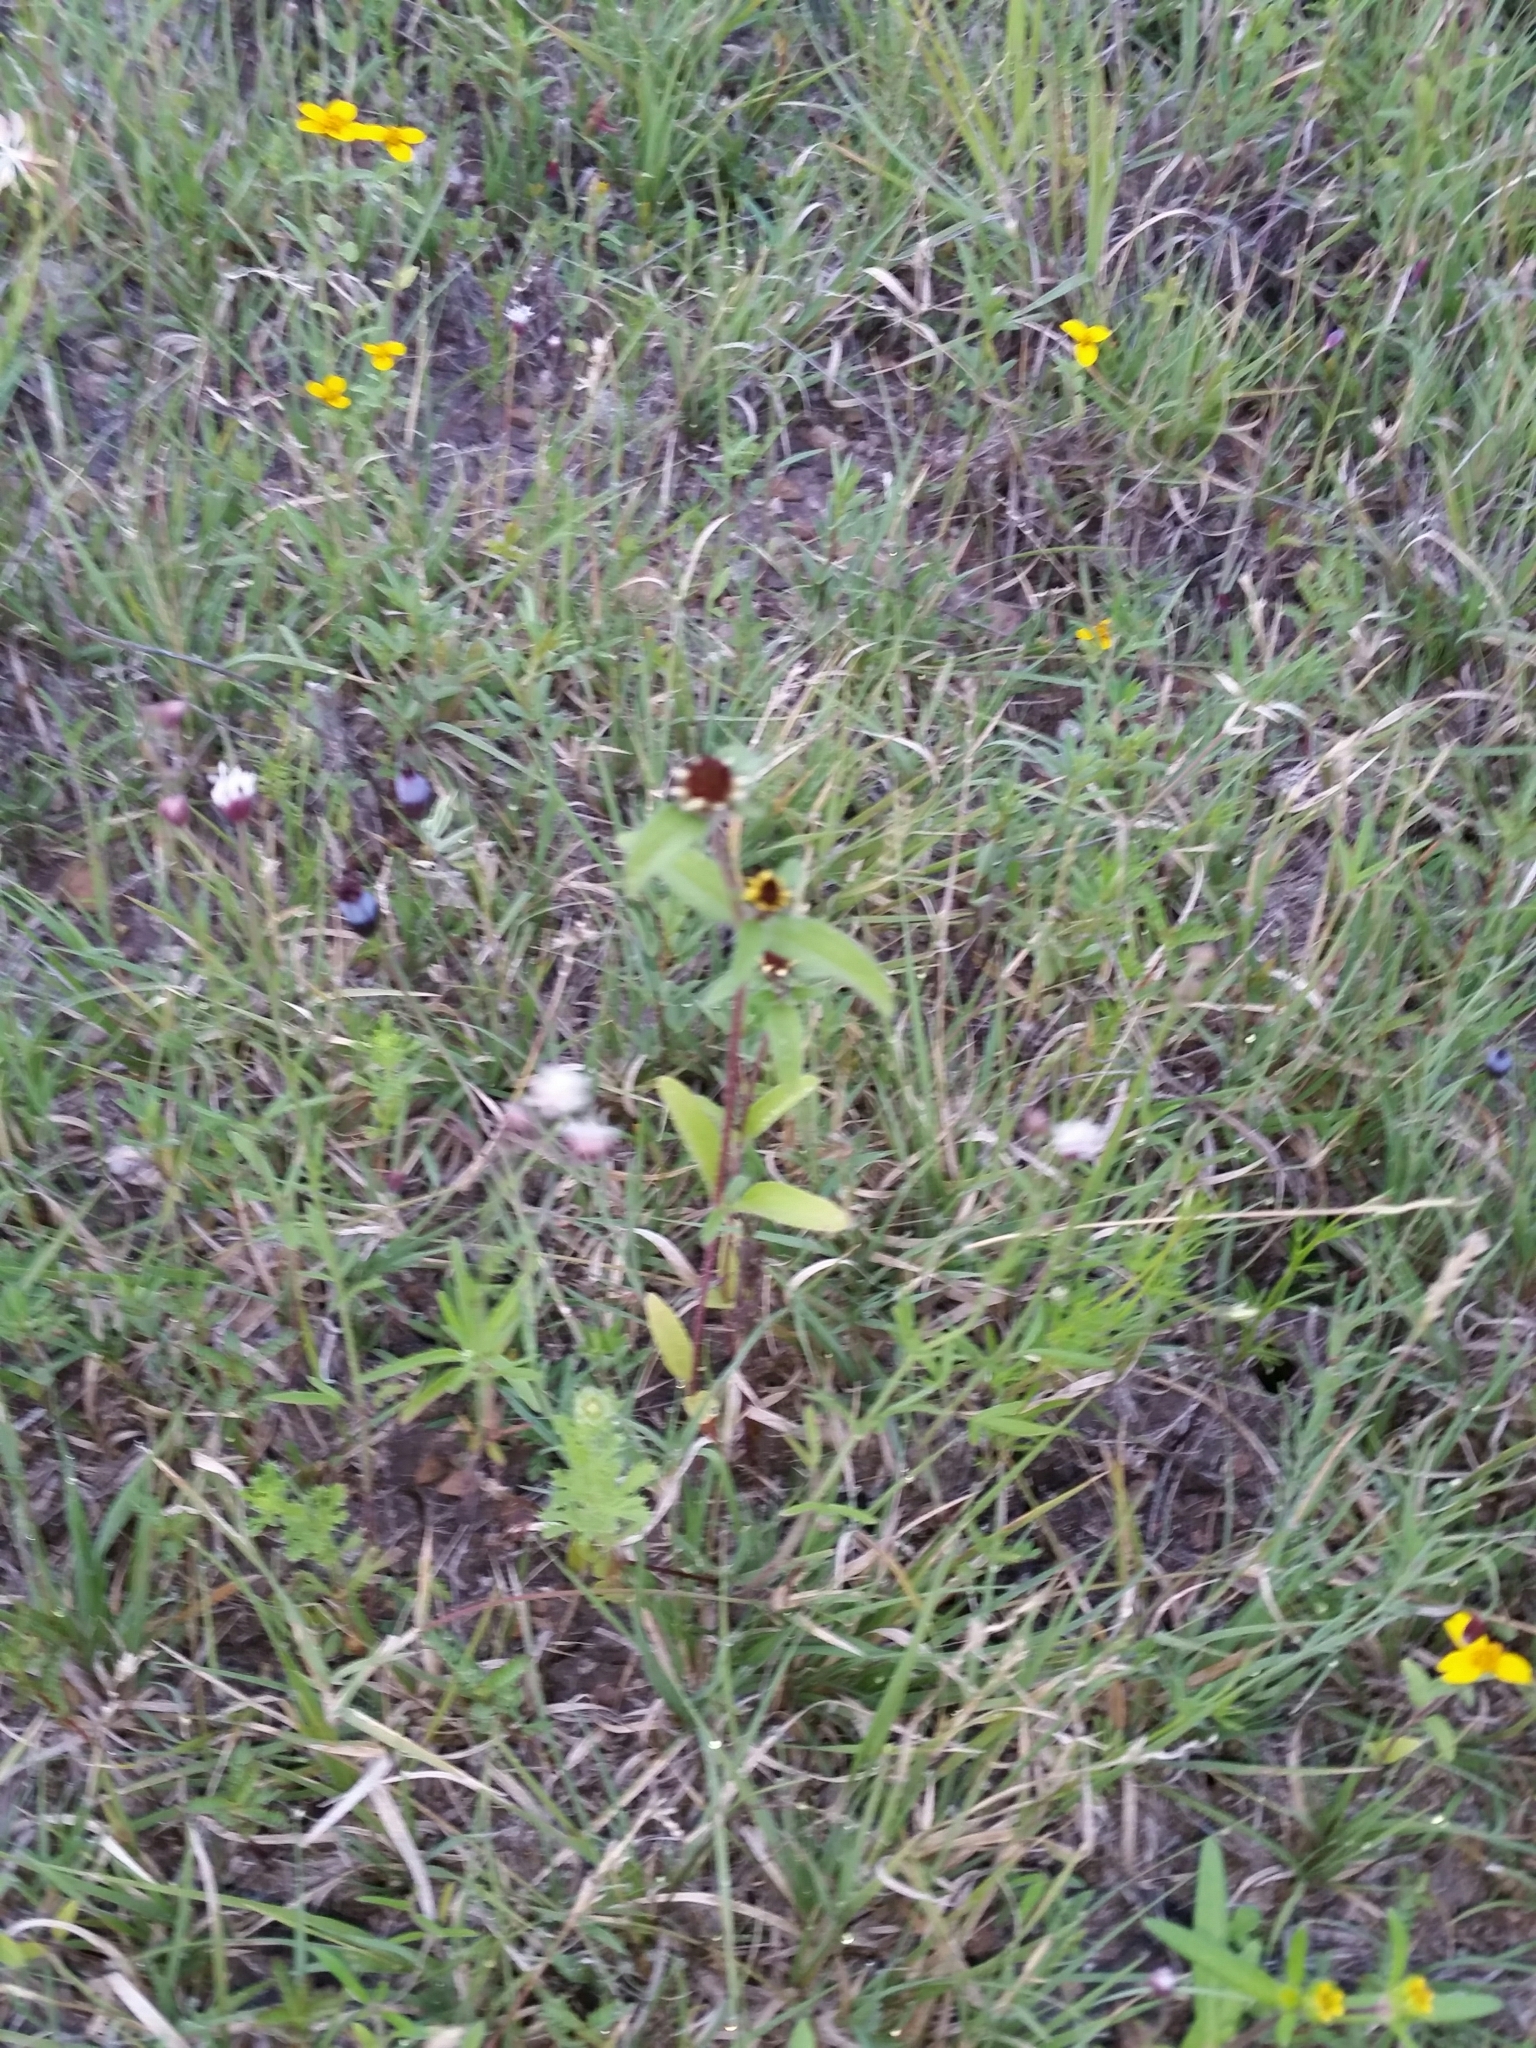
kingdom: Plantae
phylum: Tracheophyta
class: Magnoliopsida
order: Asterales
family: Asteraceae
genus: Sanvitalia
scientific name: Sanvitalia angustifolia
